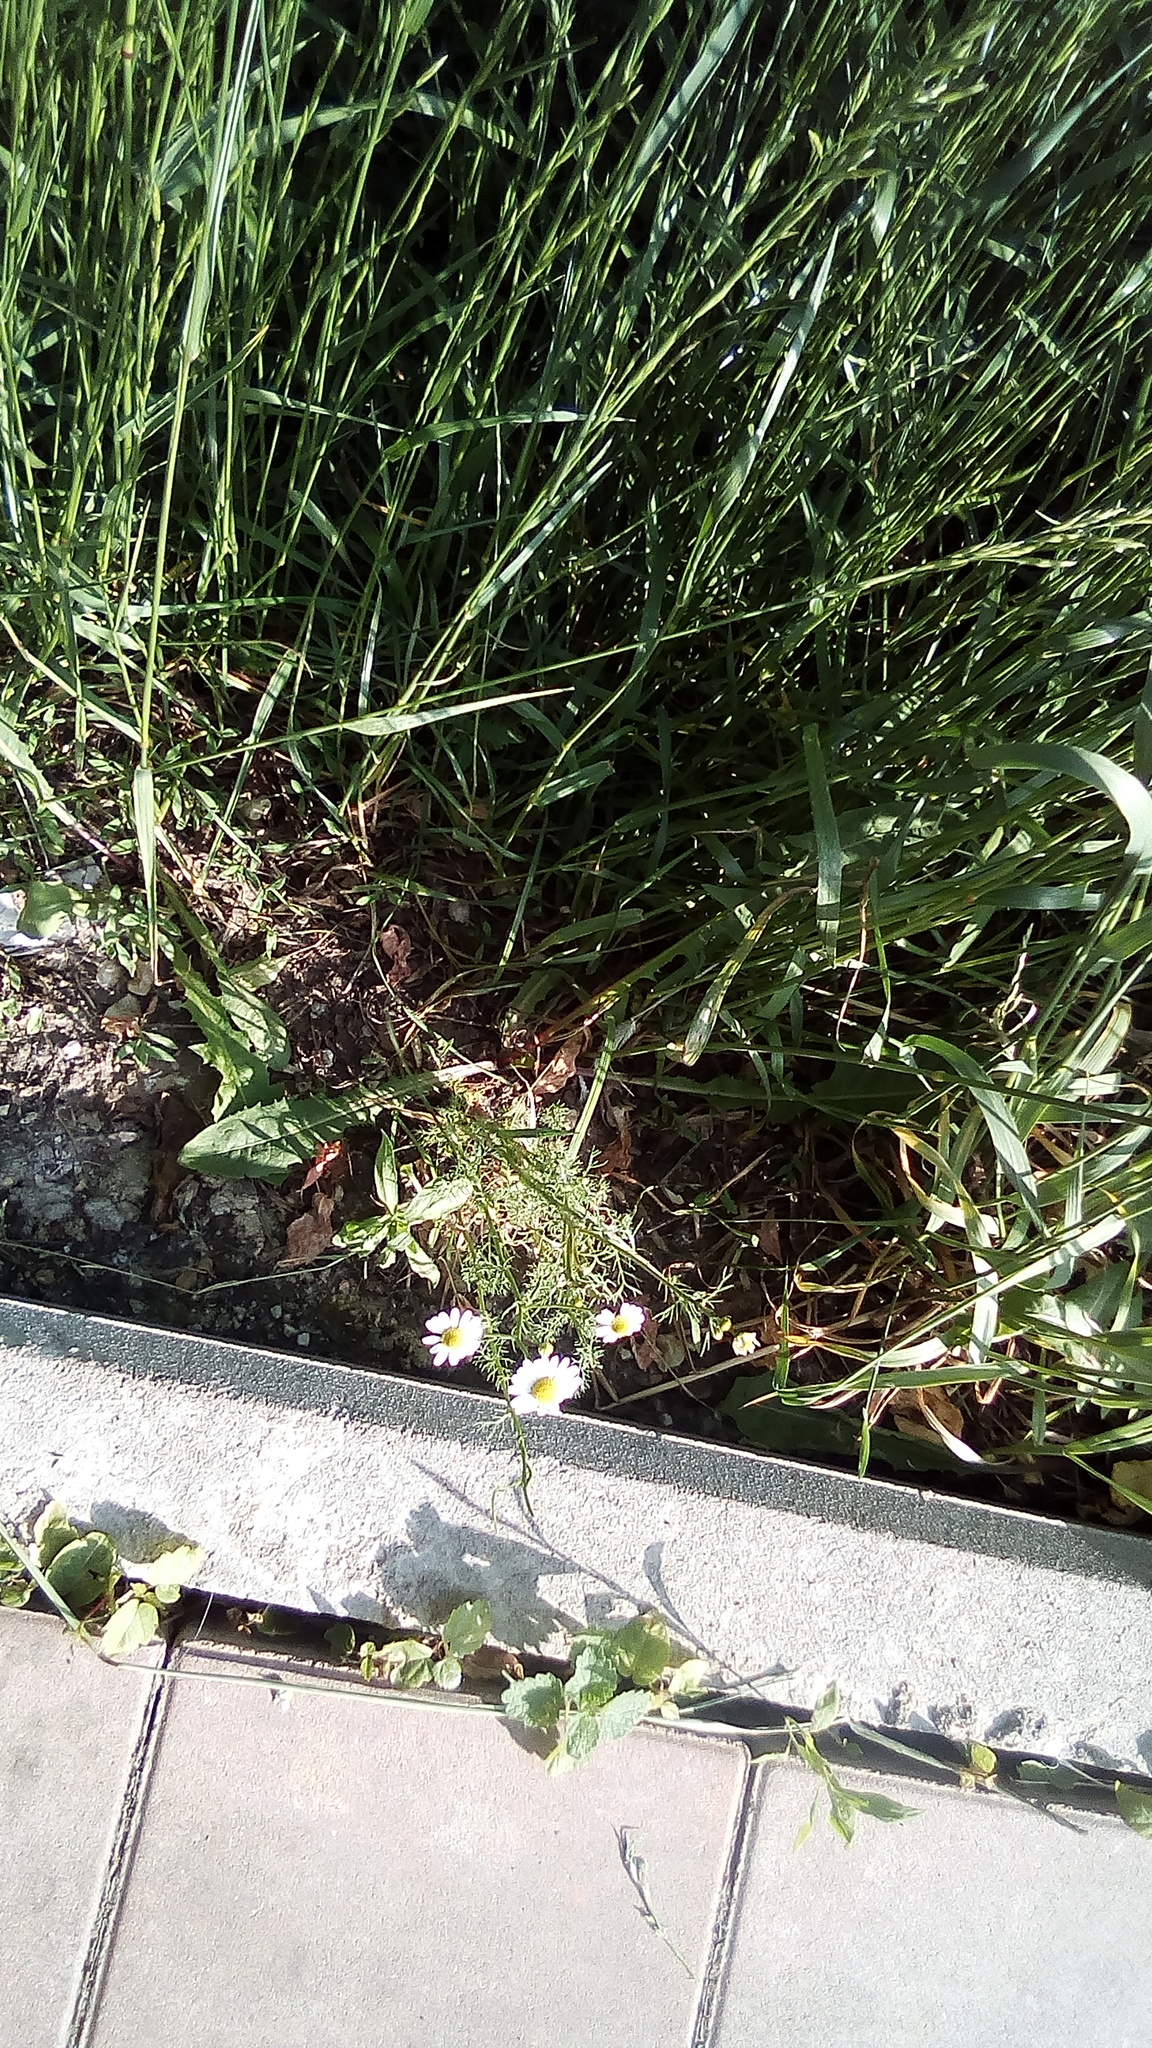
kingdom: Plantae
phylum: Tracheophyta
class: Magnoliopsida
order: Asterales
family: Asteraceae
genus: Tripleurospermum
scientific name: Tripleurospermum inodorum
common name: Scentless mayweed
